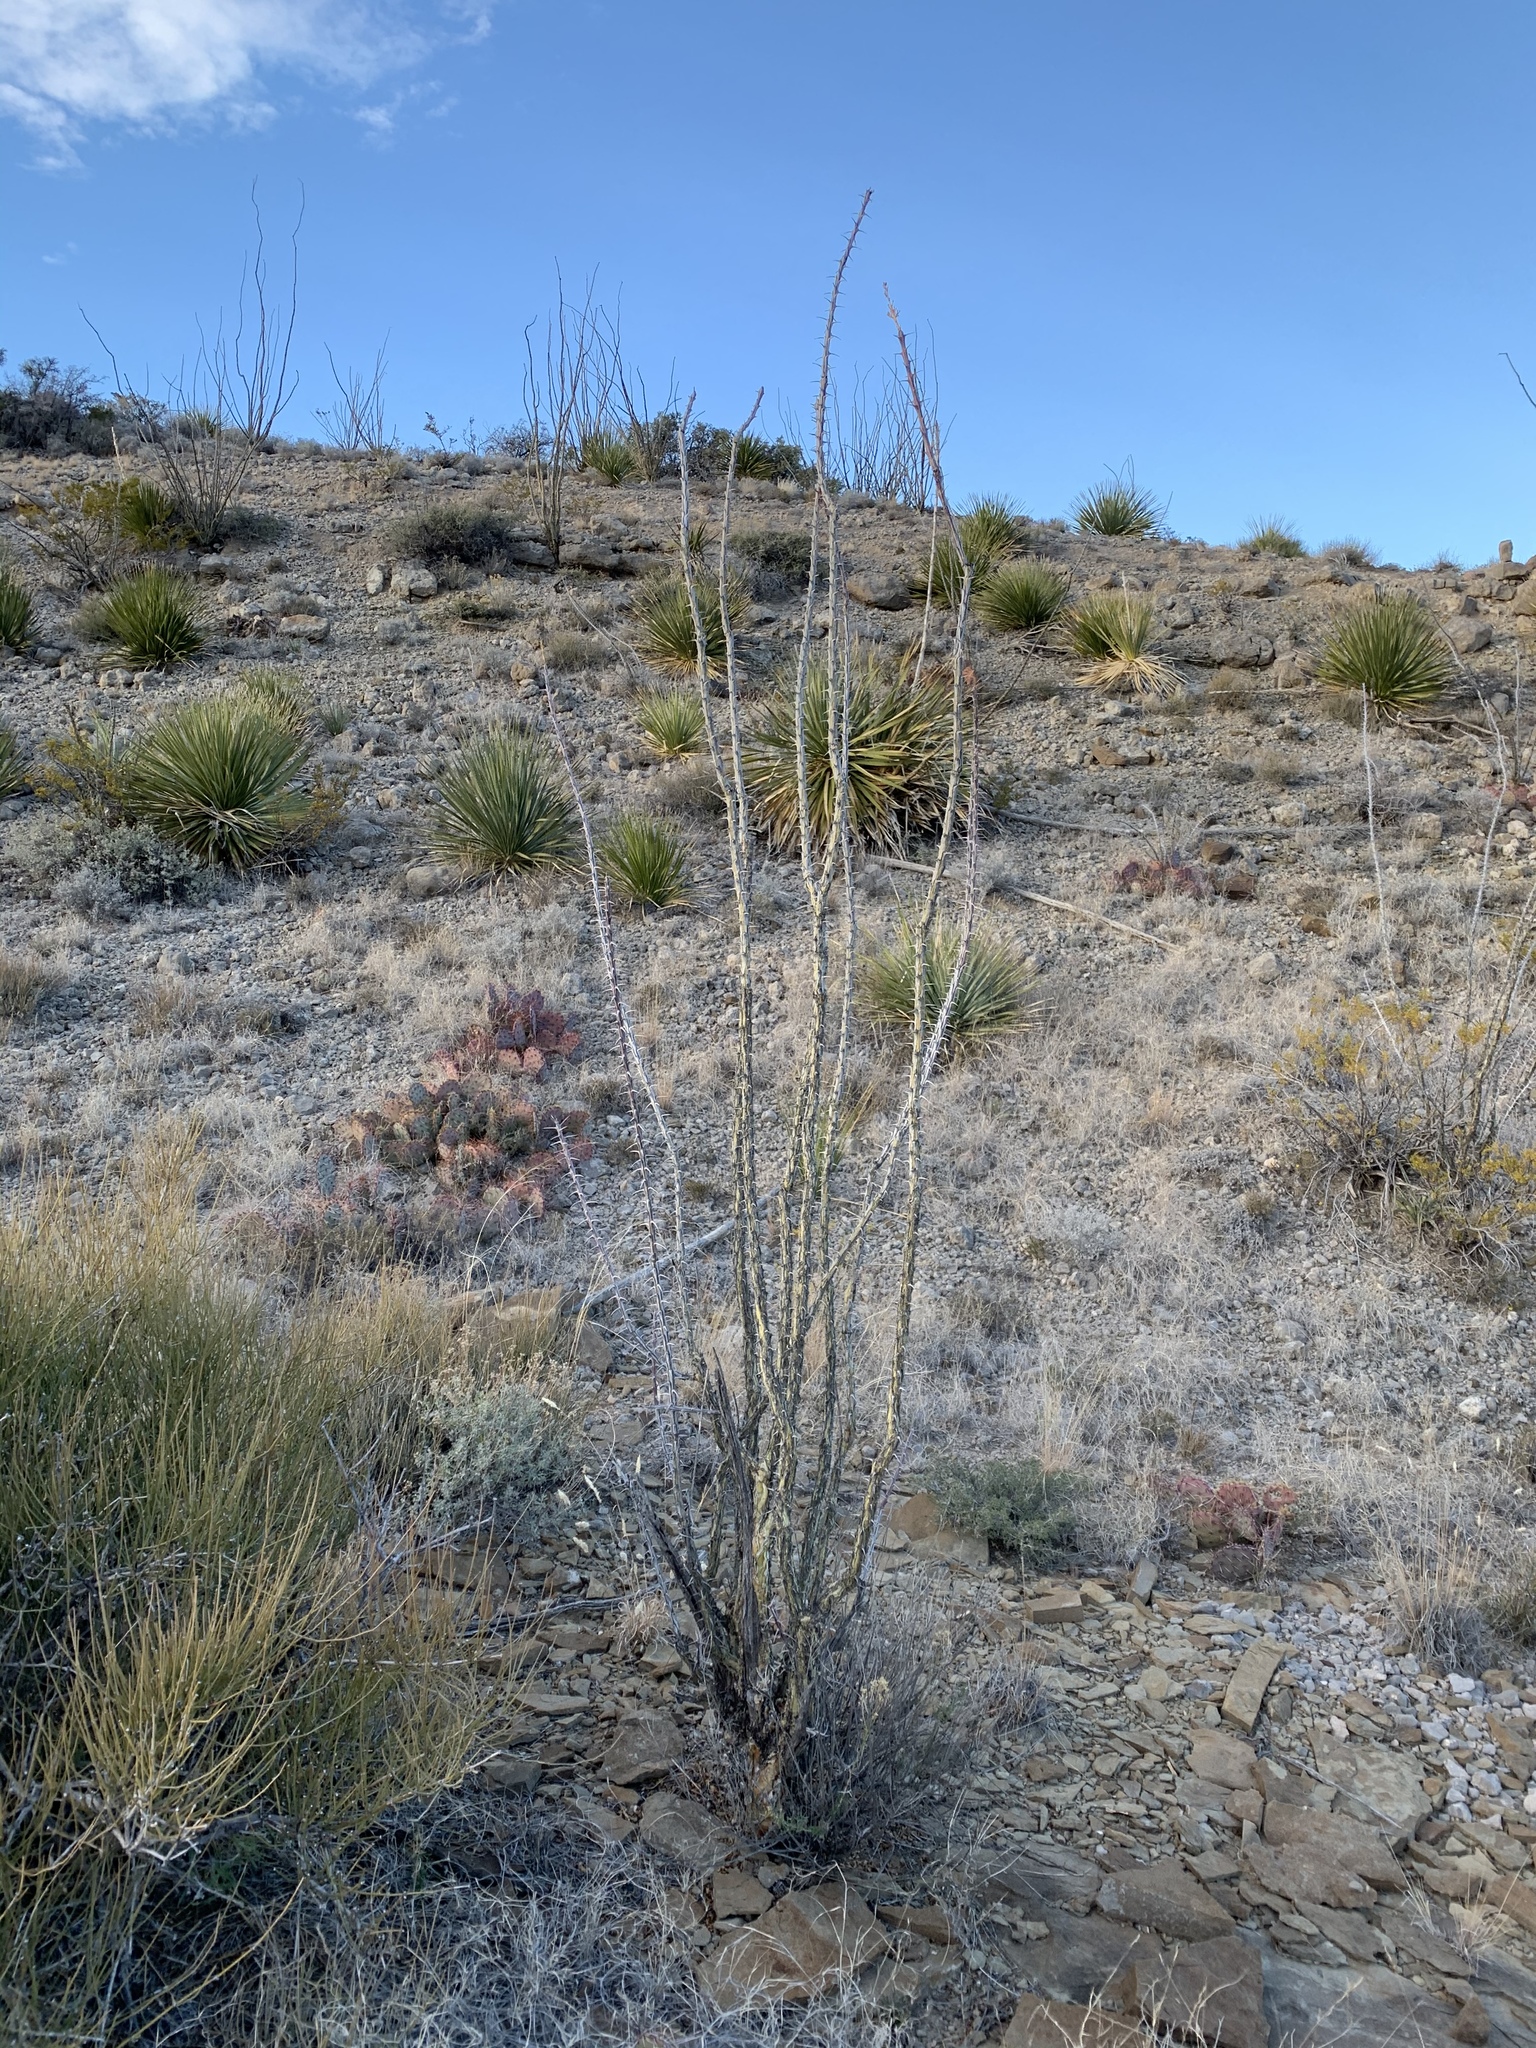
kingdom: Plantae
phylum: Tracheophyta
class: Magnoliopsida
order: Ericales
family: Fouquieriaceae
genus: Fouquieria
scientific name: Fouquieria splendens
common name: Vine-cactus
